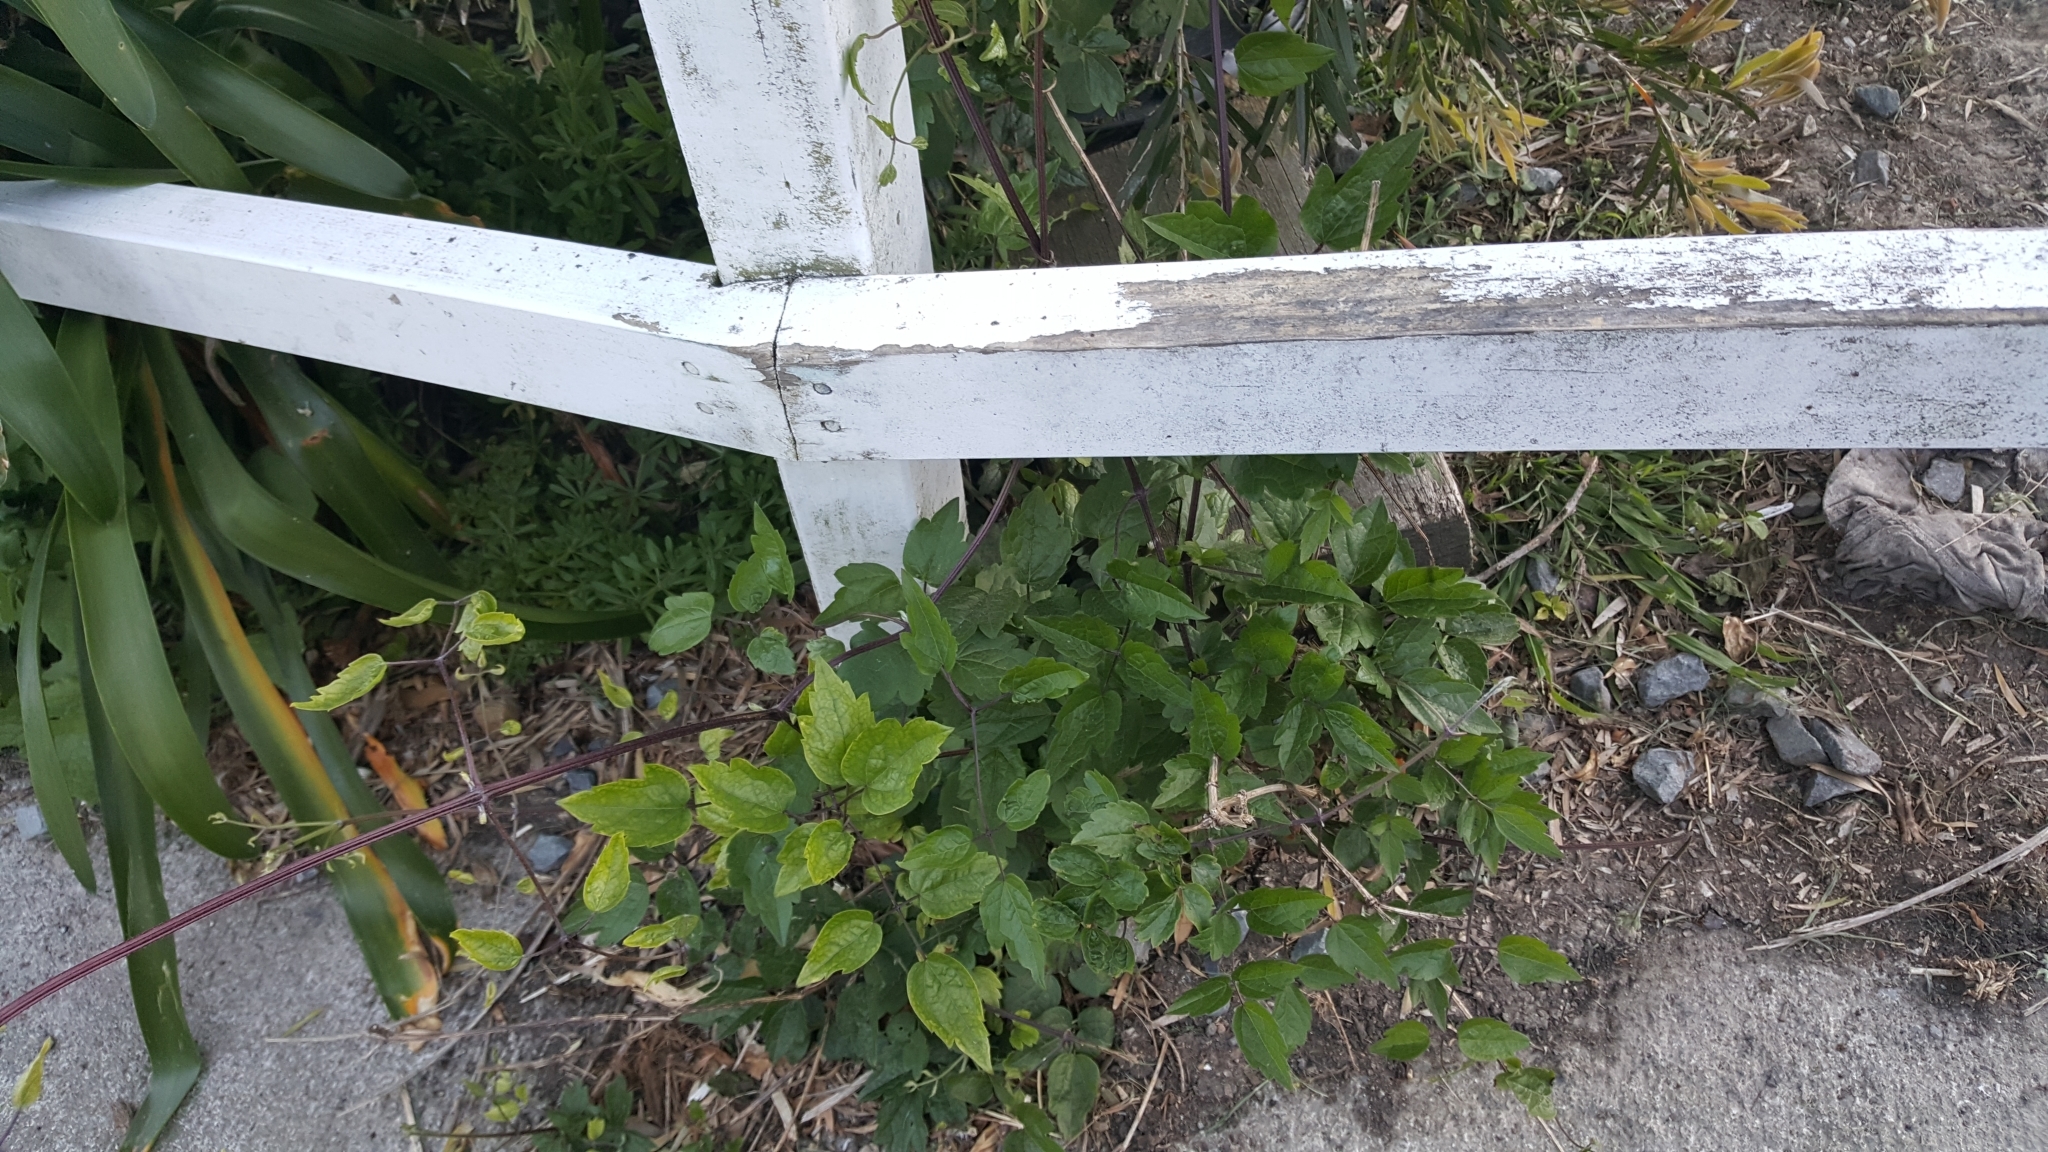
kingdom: Plantae
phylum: Tracheophyta
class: Magnoliopsida
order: Ranunculales
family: Ranunculaceae
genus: Clematis
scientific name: Clematis vitalba
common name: Evergreen clematis
